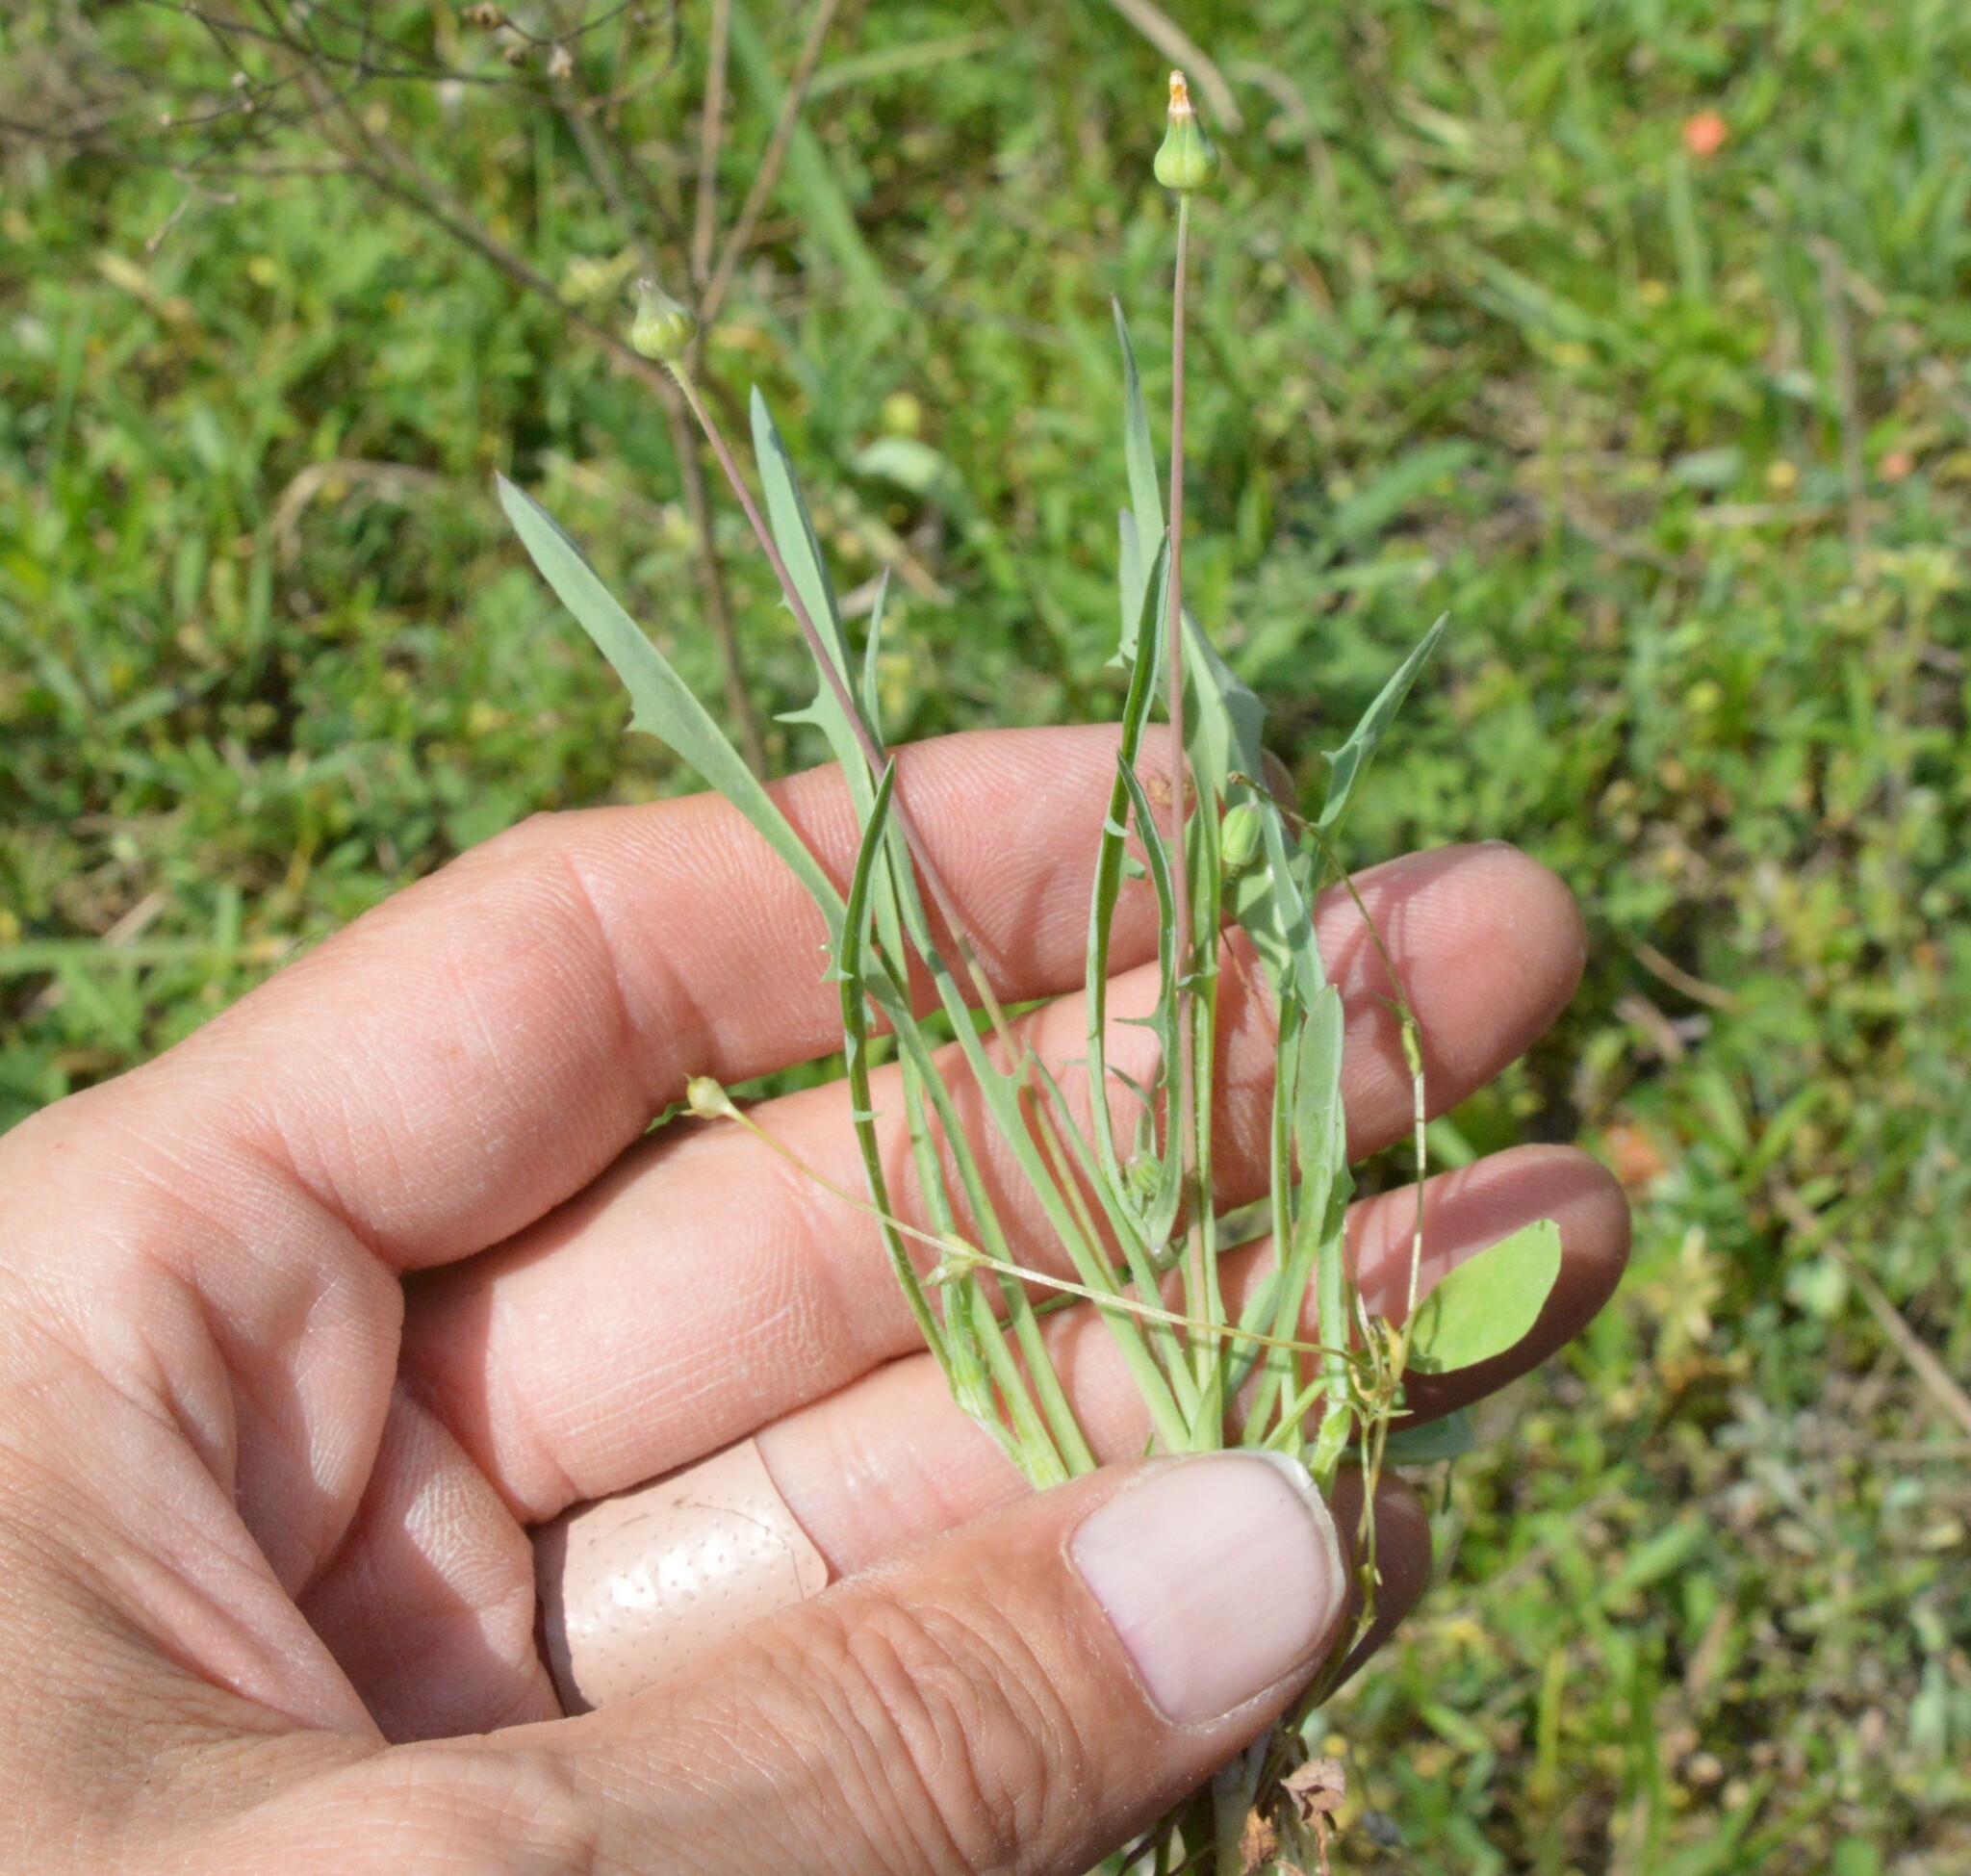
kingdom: Plantae
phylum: Tracheophyta
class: Magnoliopsida
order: Asterales
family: Asteraceae
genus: Krigia
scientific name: Krigia cespitosa
